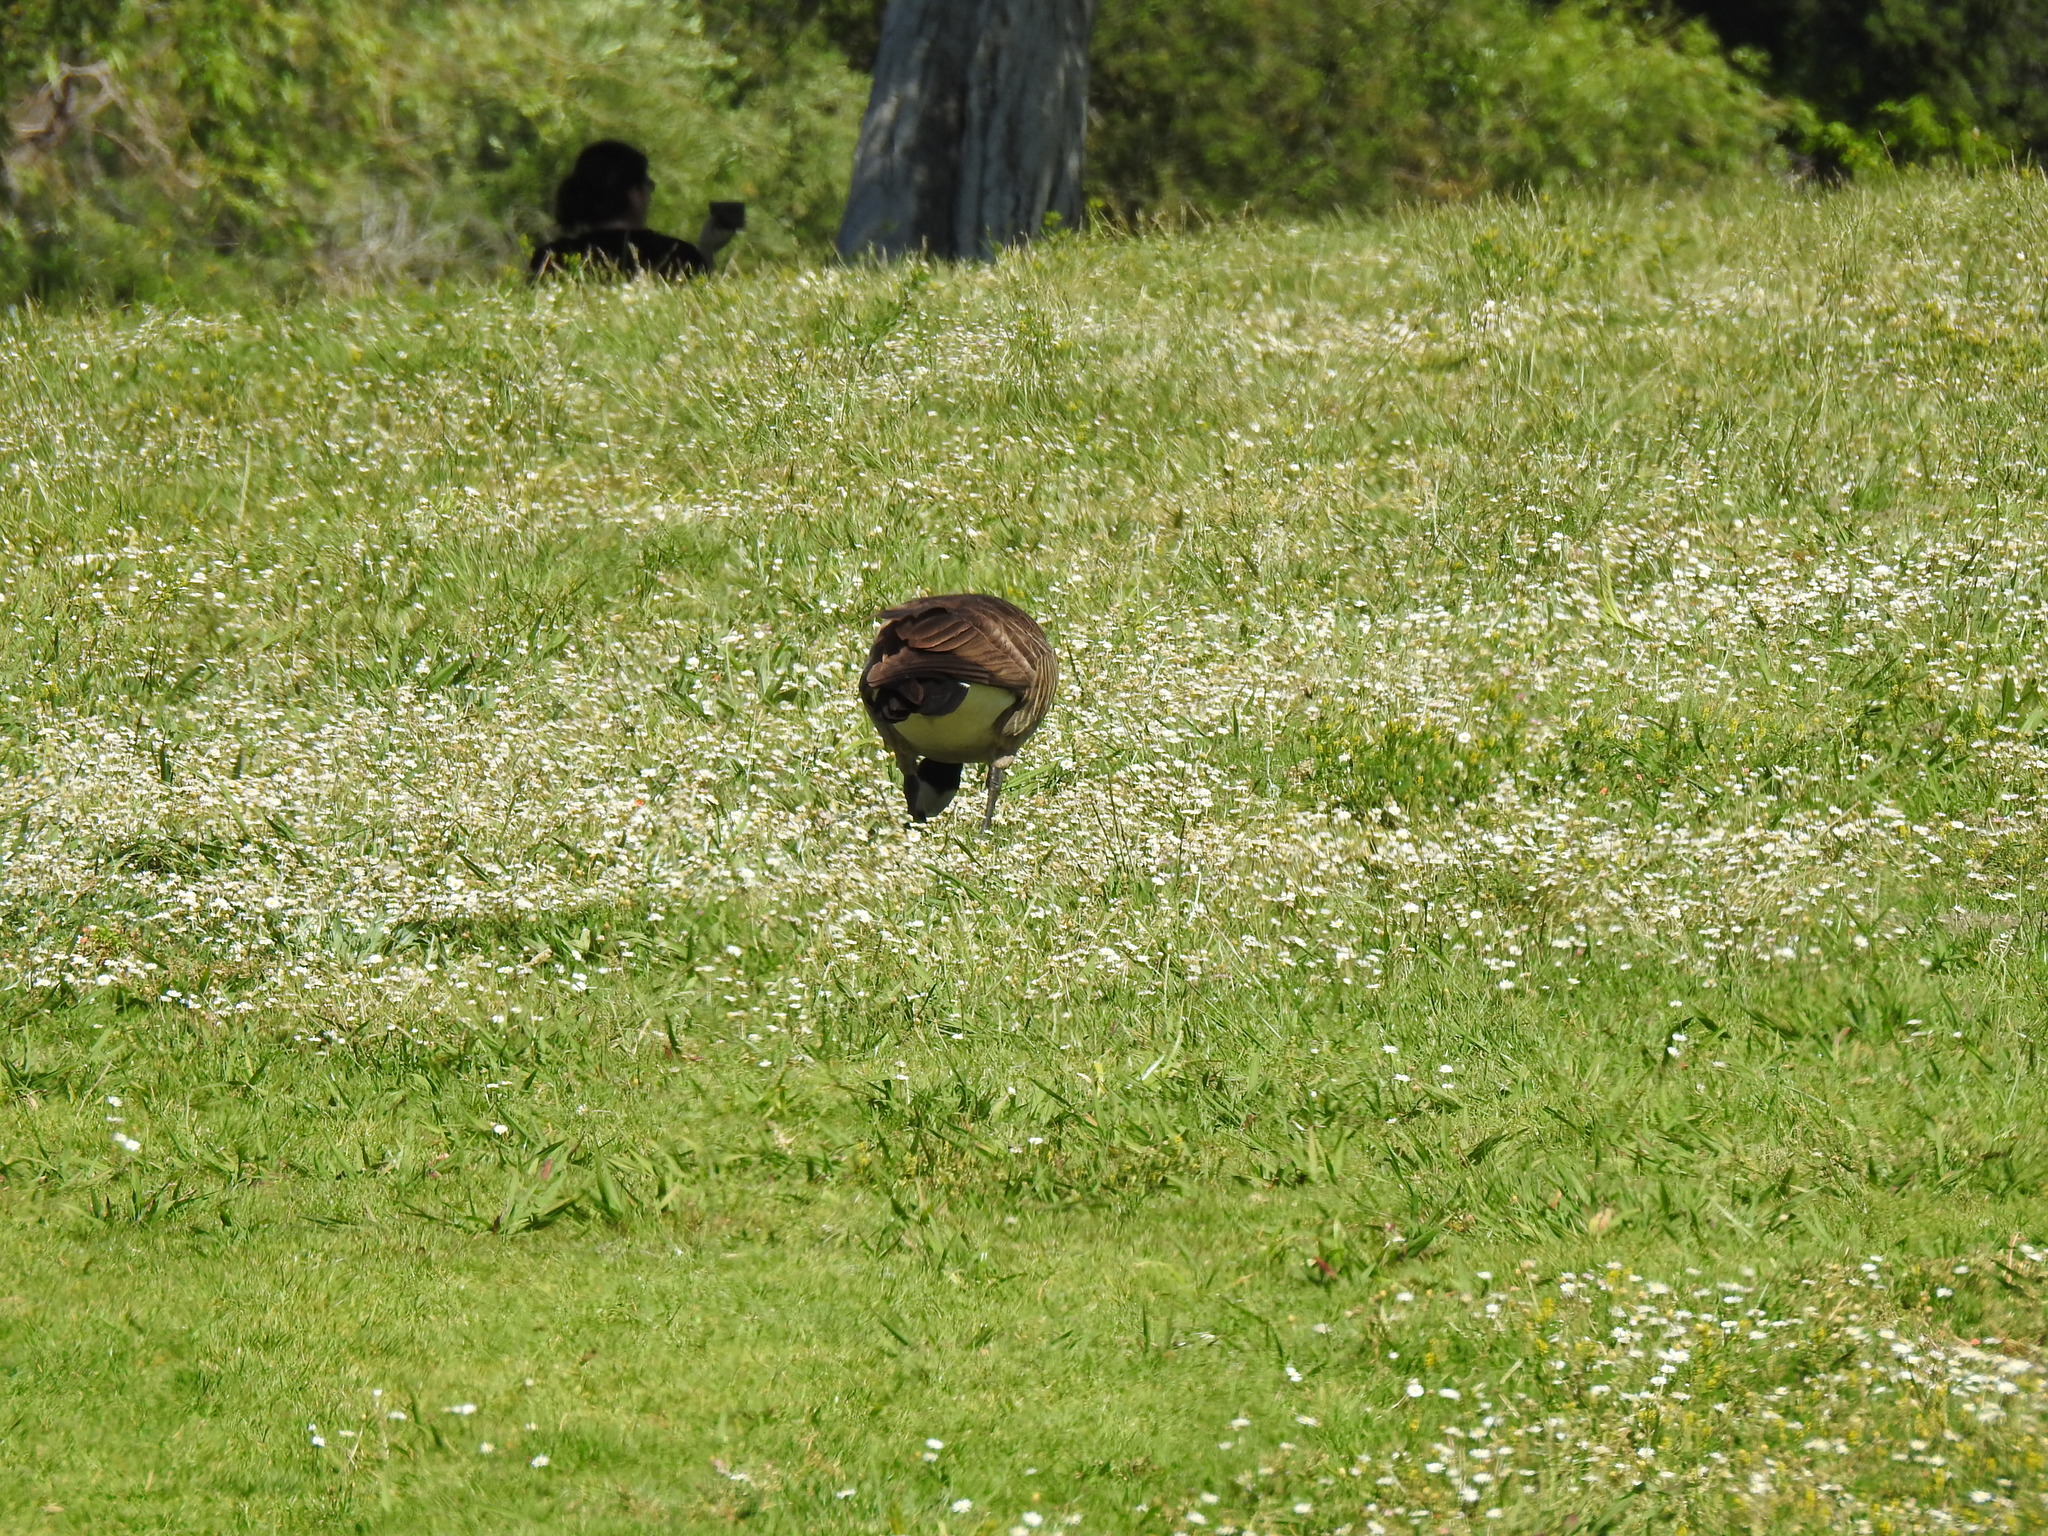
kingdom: Animalia
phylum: Chordata
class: Aves
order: Anseriformes
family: Anatidae
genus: Branta
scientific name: Branta canadensis
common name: Canada goose
